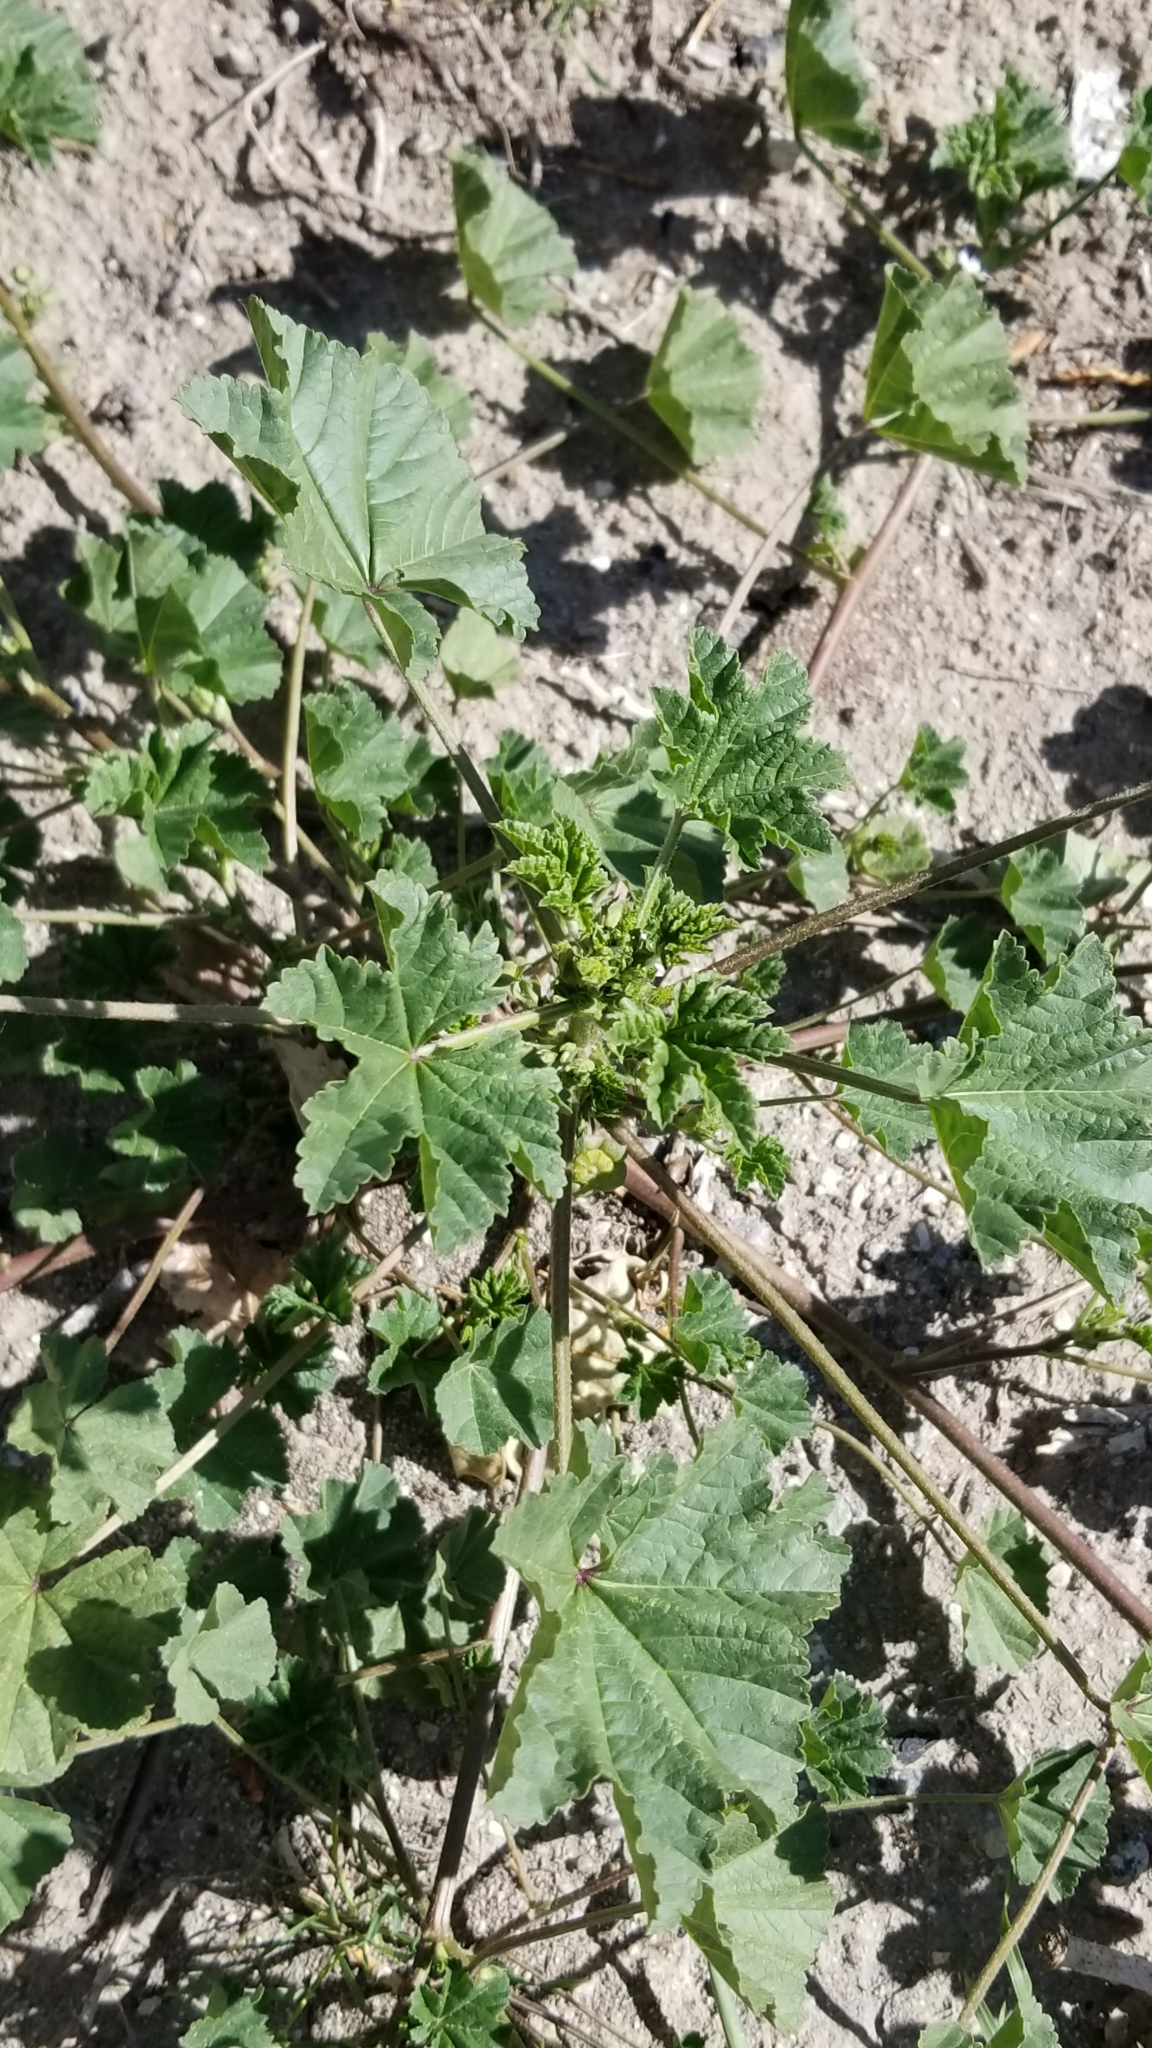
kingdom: Plantae
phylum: Tracheophyta
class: Magnoliopsida
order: Malvales
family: Malvaceae
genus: Malva
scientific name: Malva parviflora
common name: Least mallow
